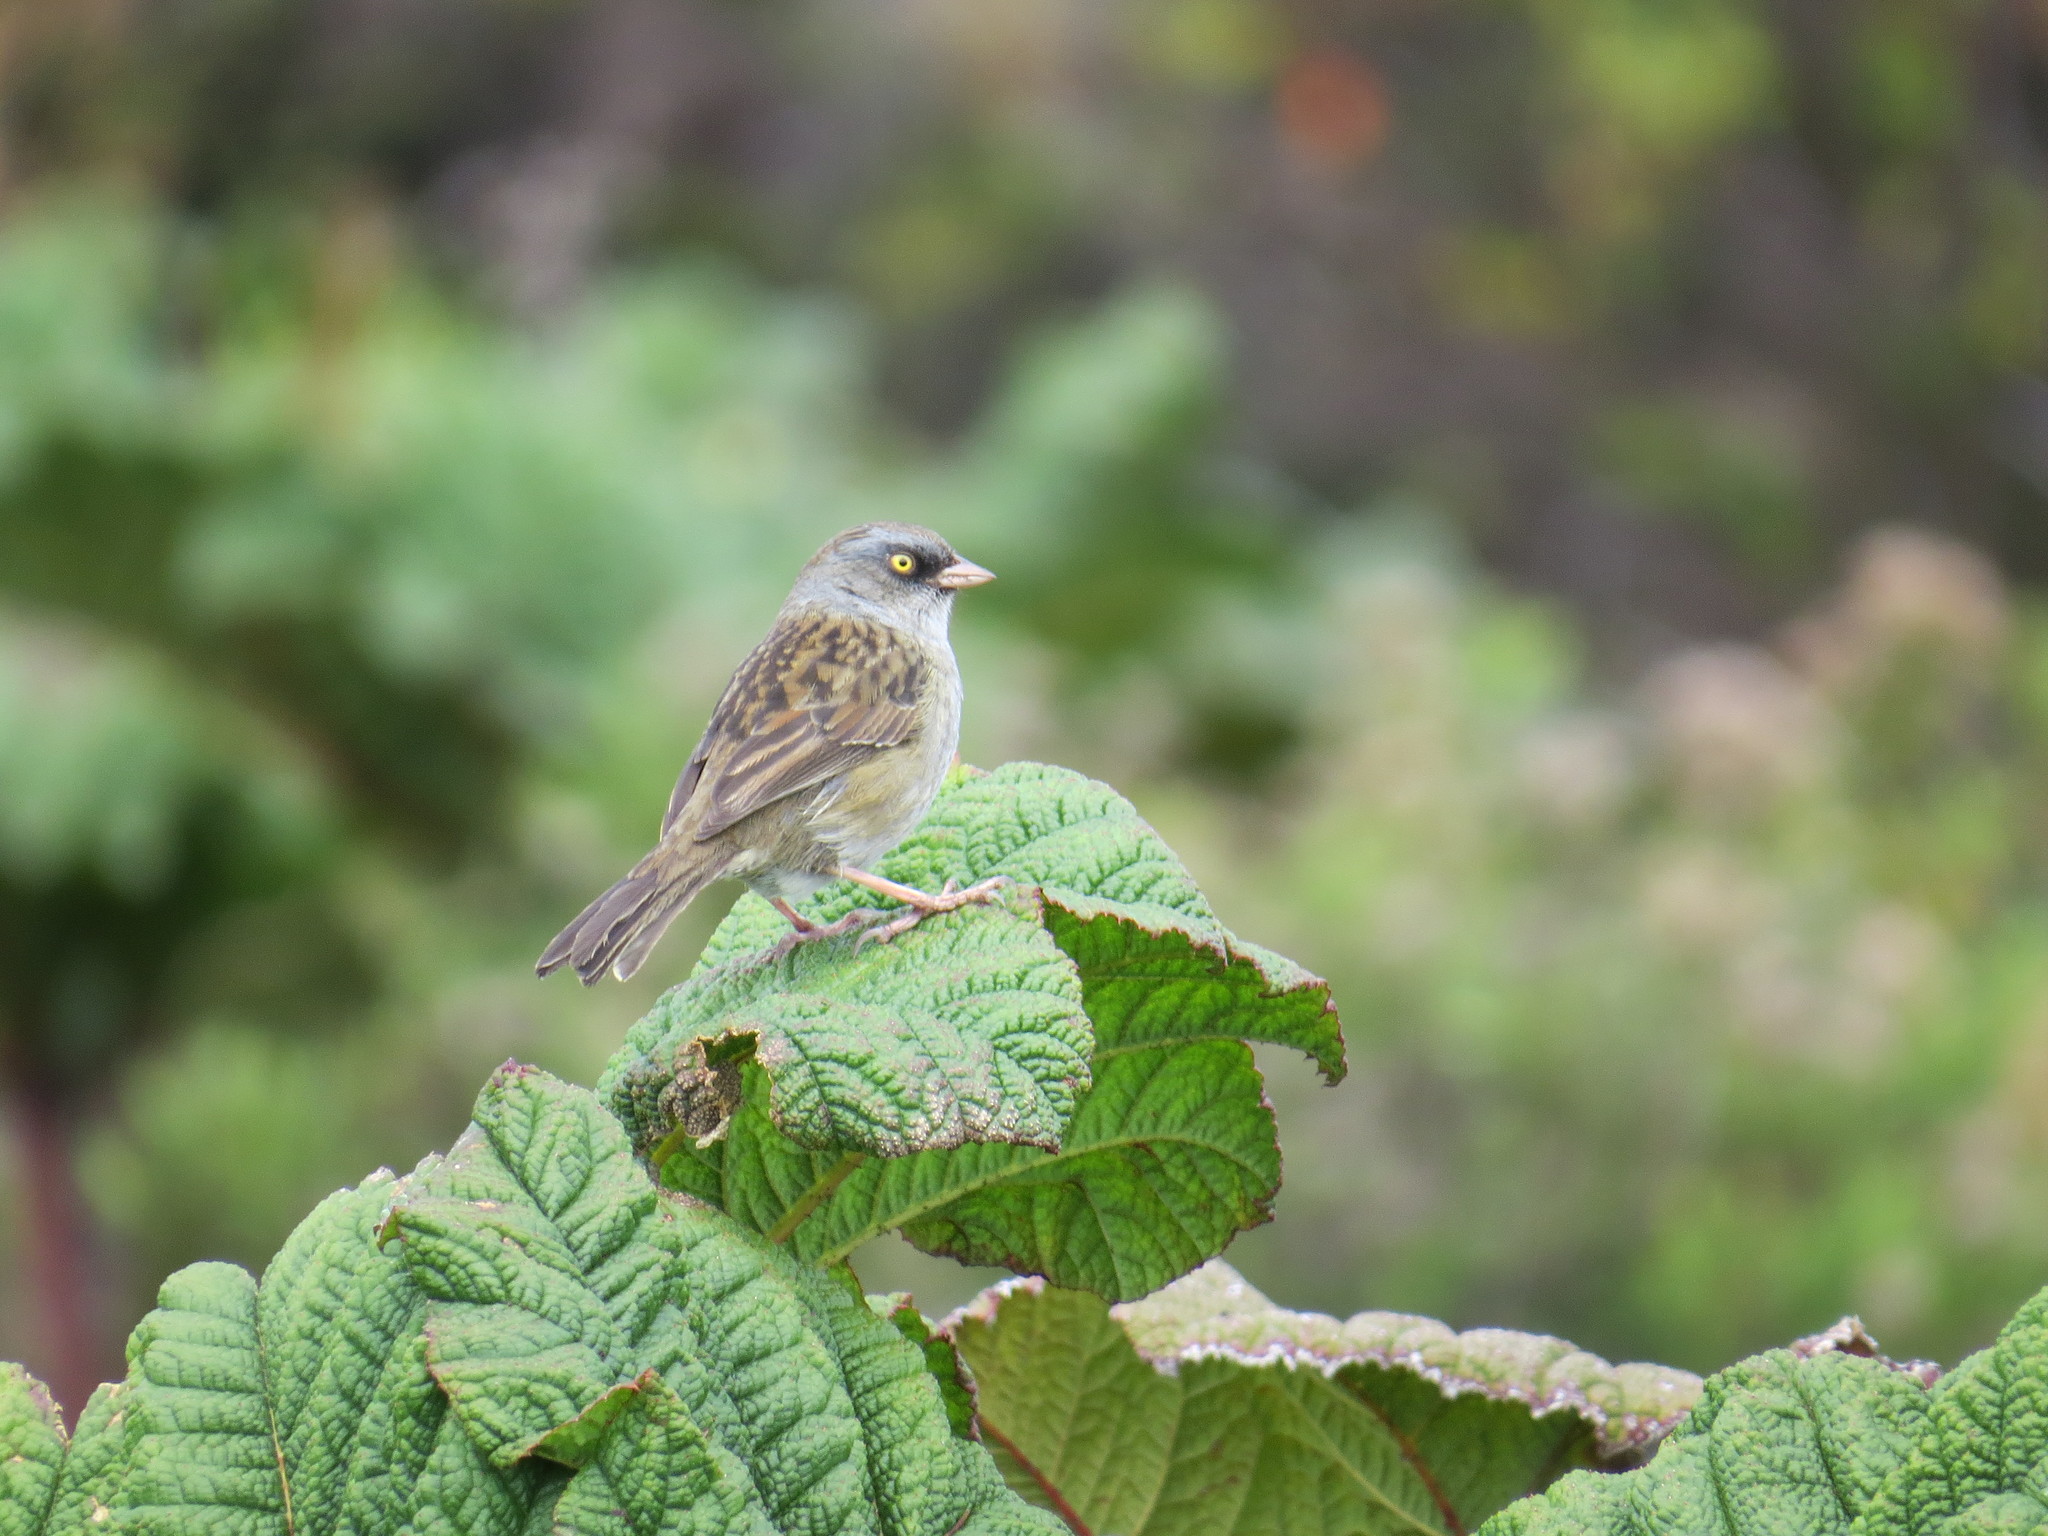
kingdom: Animalia
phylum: Chordata
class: Aves
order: Passeriformes
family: Passerellidae
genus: Junco
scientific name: Junco vulcani
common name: Volcano junco
